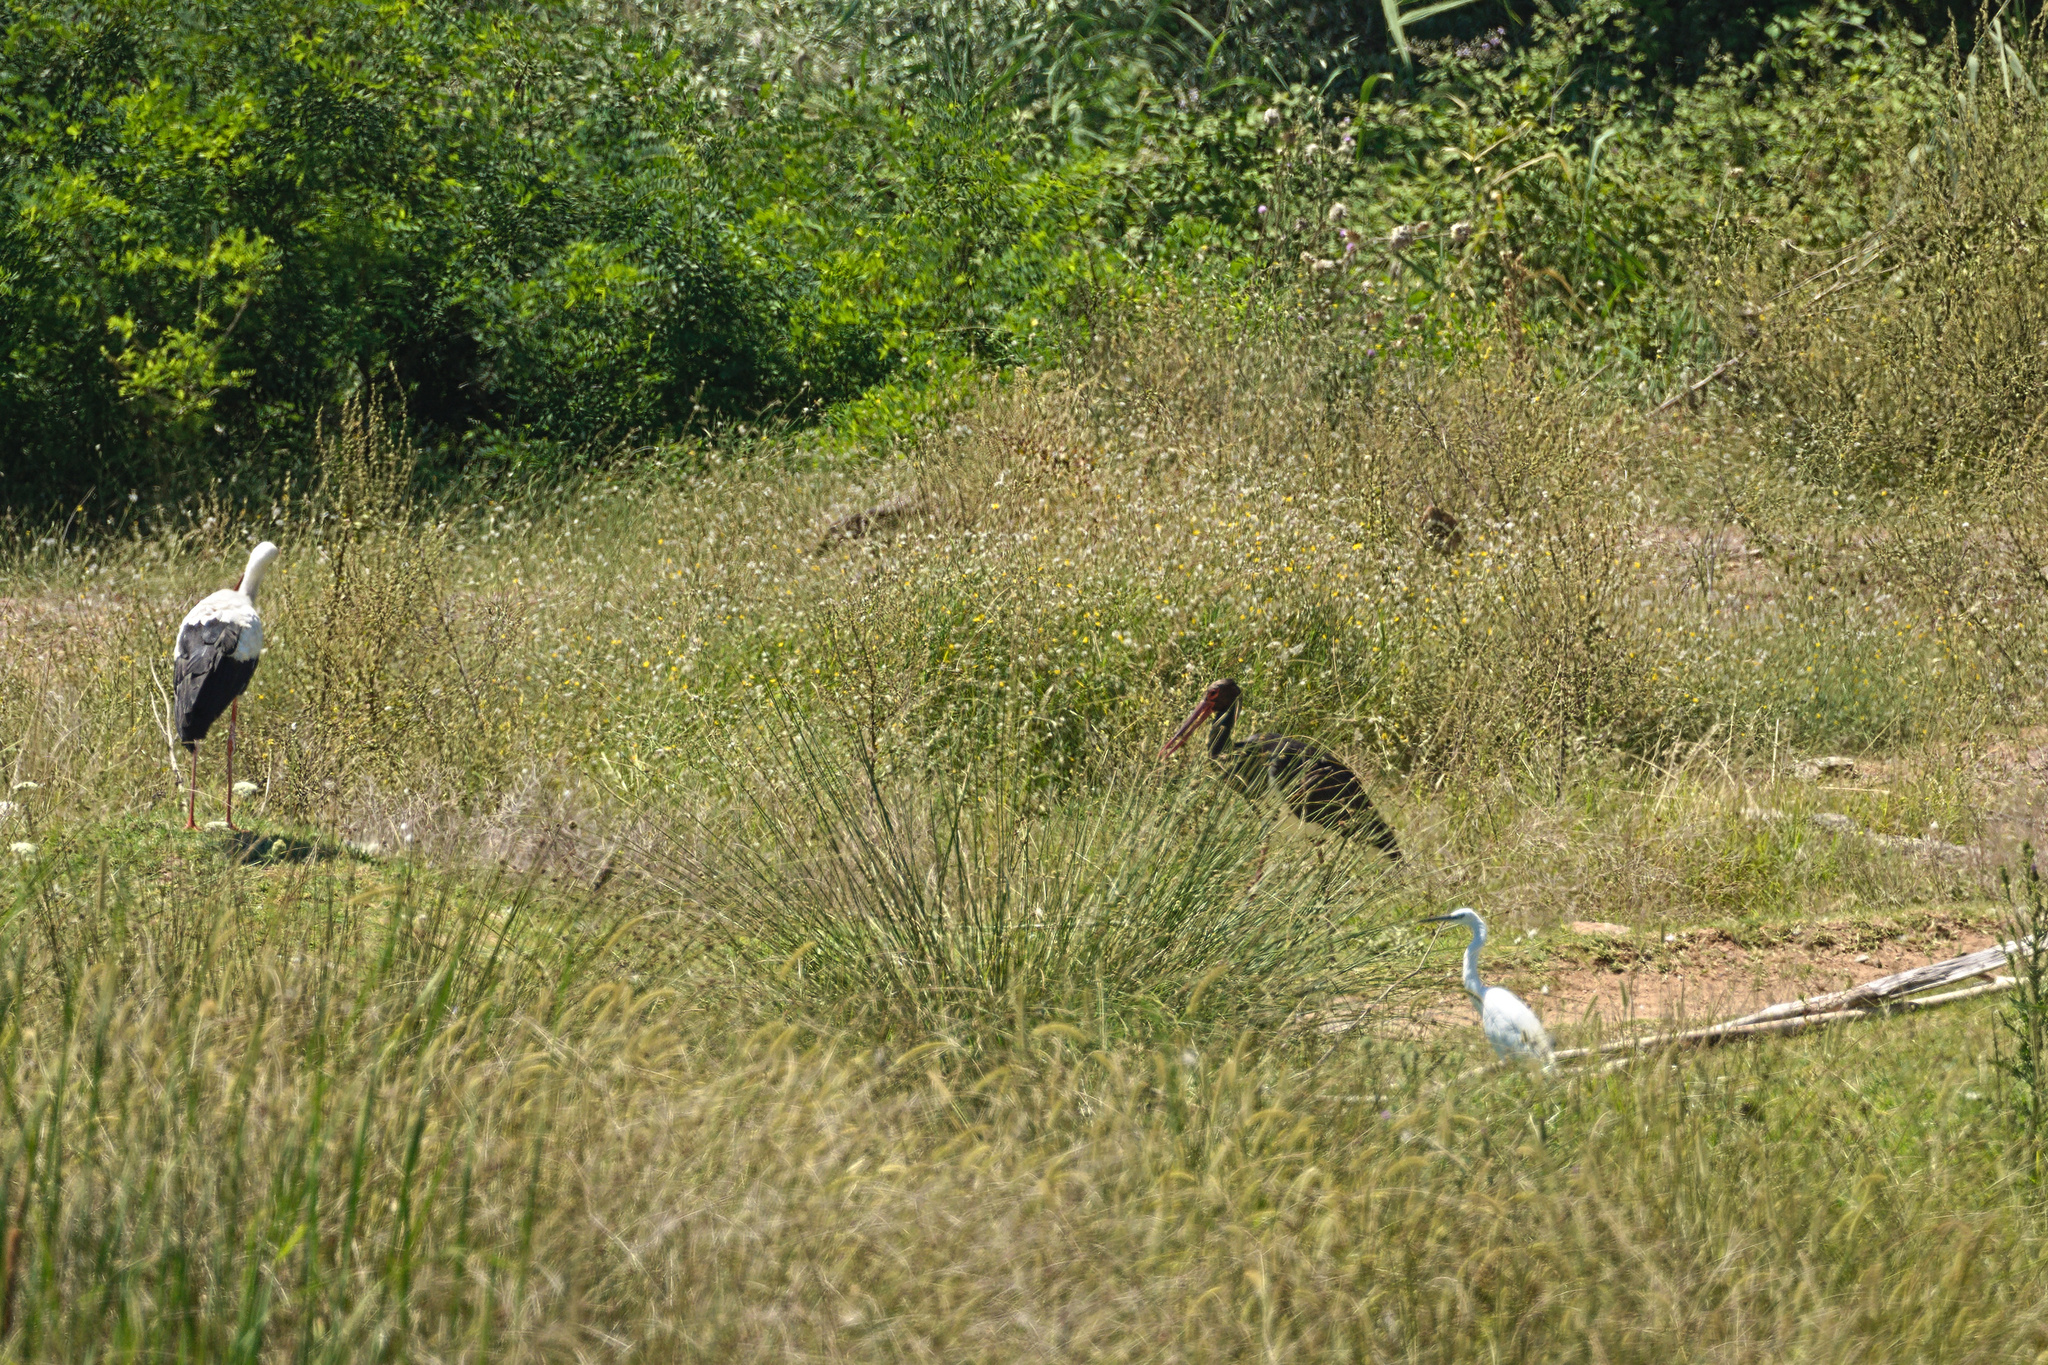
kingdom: Animalia
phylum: Chordata
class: Aves
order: Ciconiiformes
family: Ciconiidae
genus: Ciconia
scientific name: Ciconia ciconia
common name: White stork
